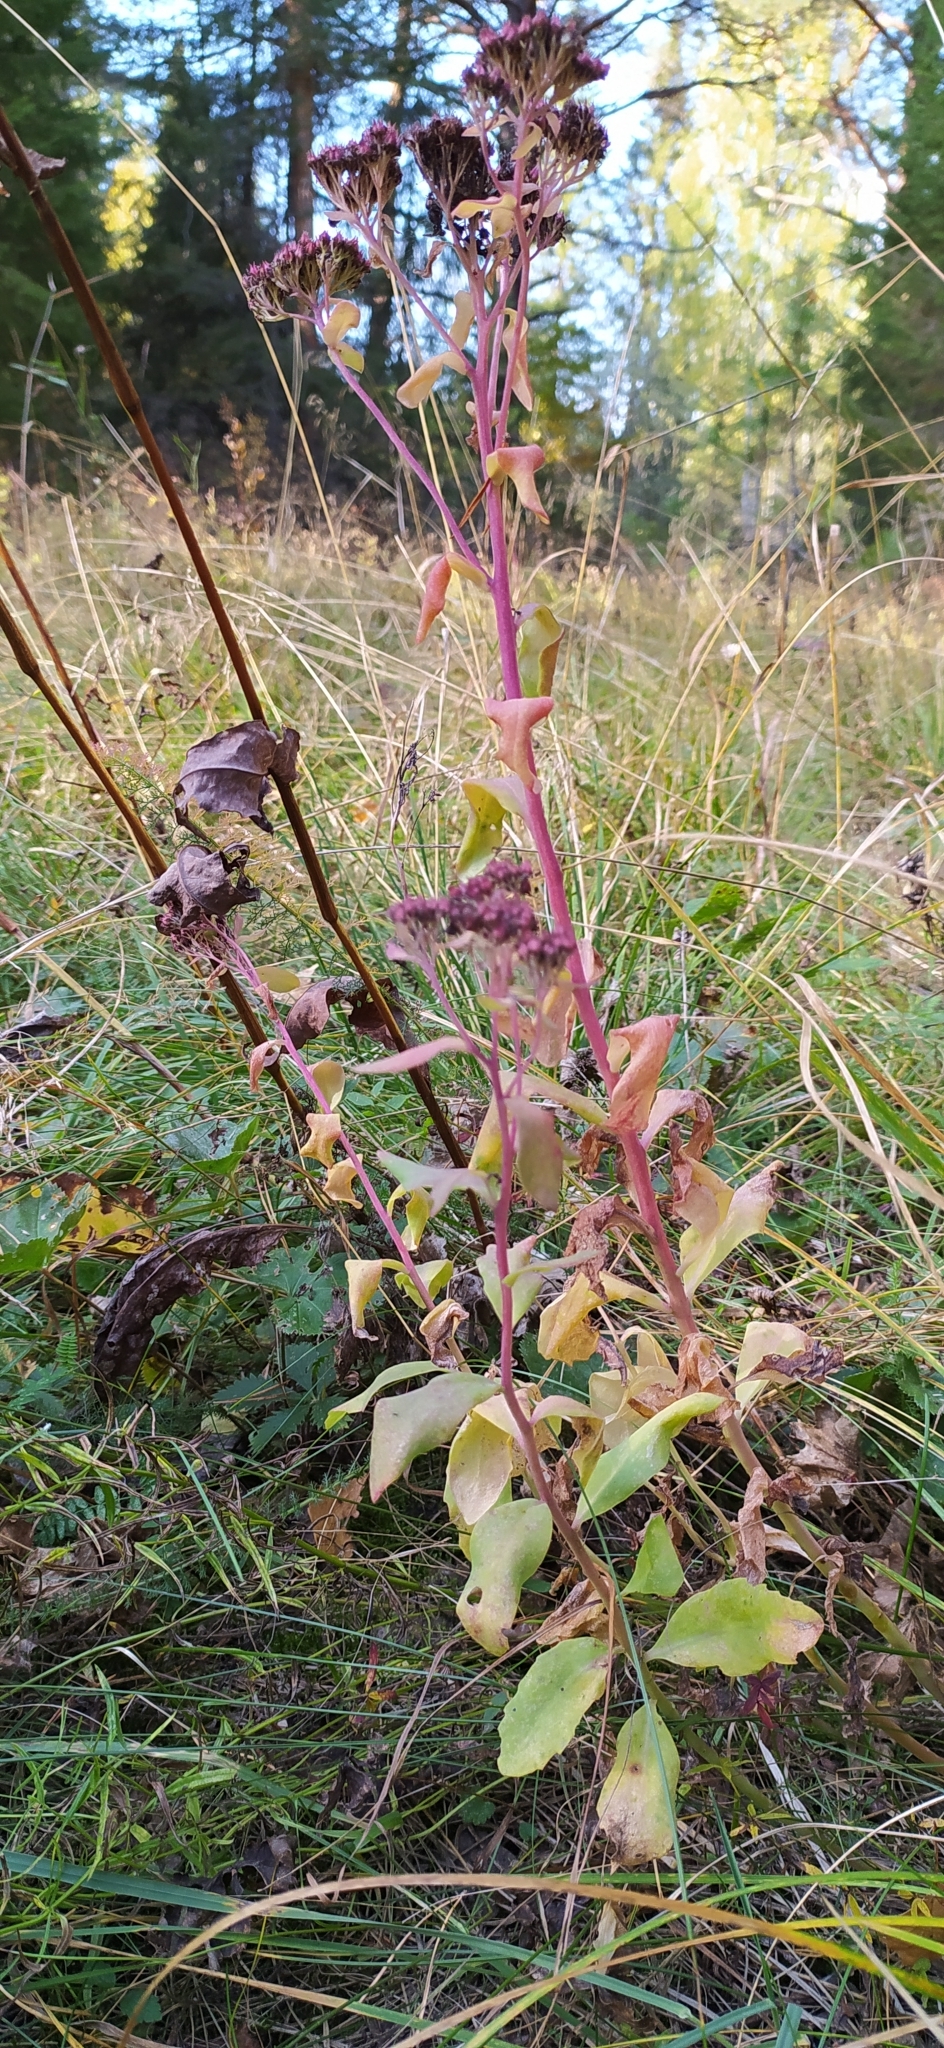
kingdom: Plantae
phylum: Tracheophyta
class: Magnoliopsida
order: Saxifragales
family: Crassulaceae
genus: Hylotelephium
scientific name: Hylotelephium telephium
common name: Live-forever
